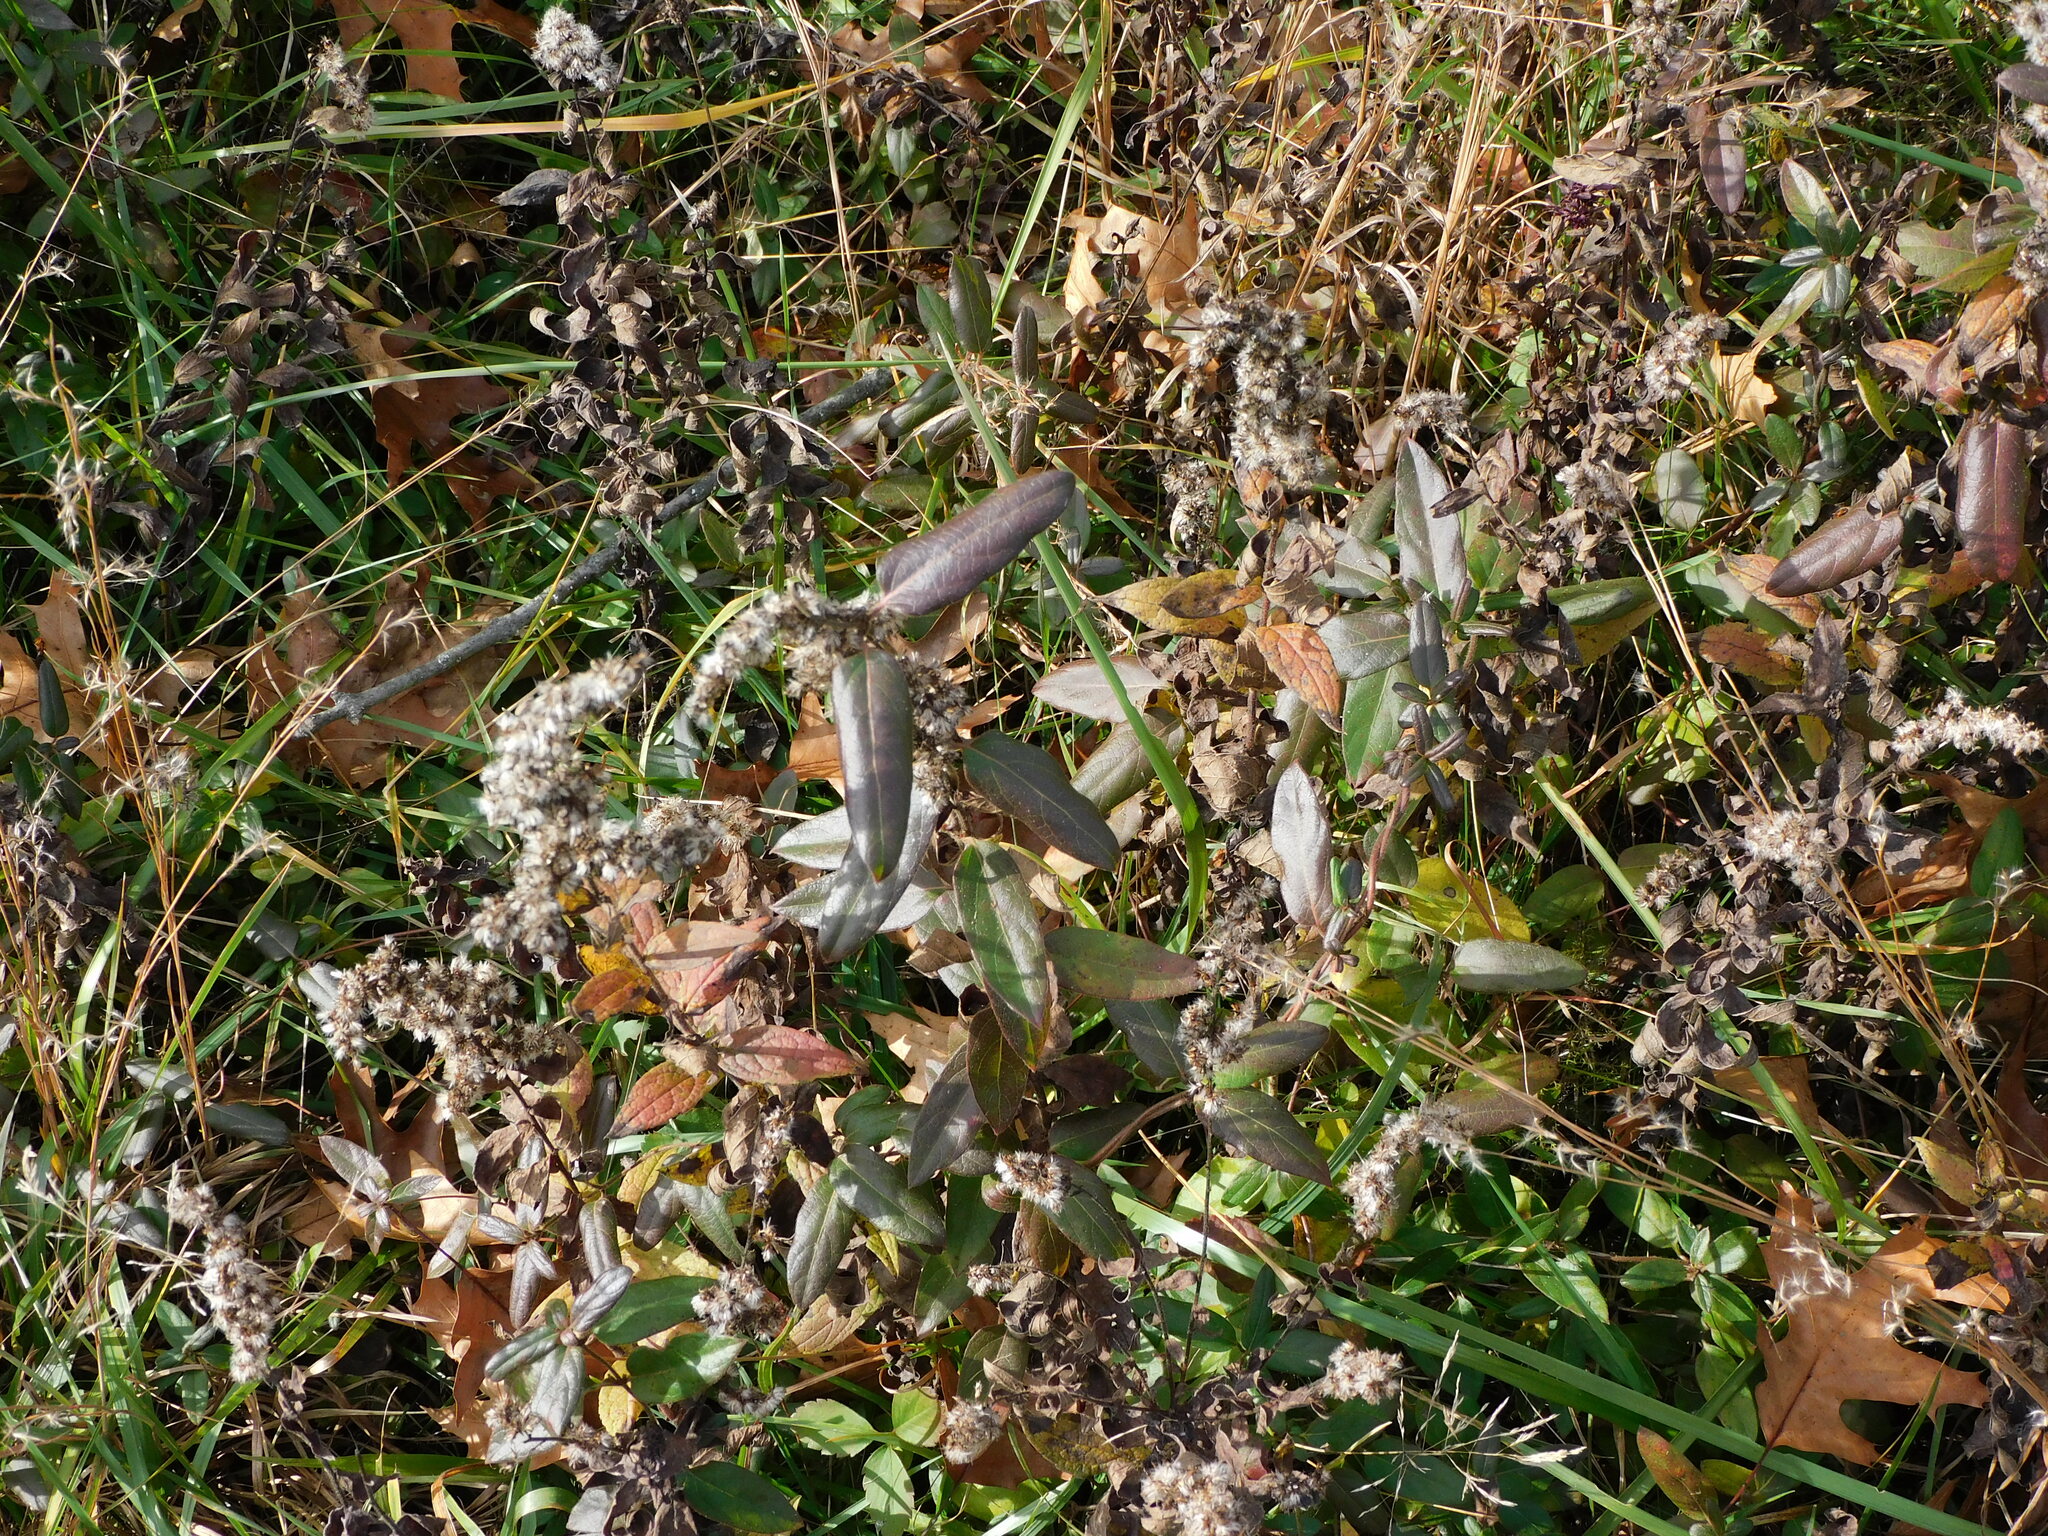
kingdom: Plantae
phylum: Tracheophyta
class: Magnoliopsida
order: Dipsacales
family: Caprifoliaceae
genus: Lonicera
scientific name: Lonicera japonica
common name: Japanese honeysuckle
